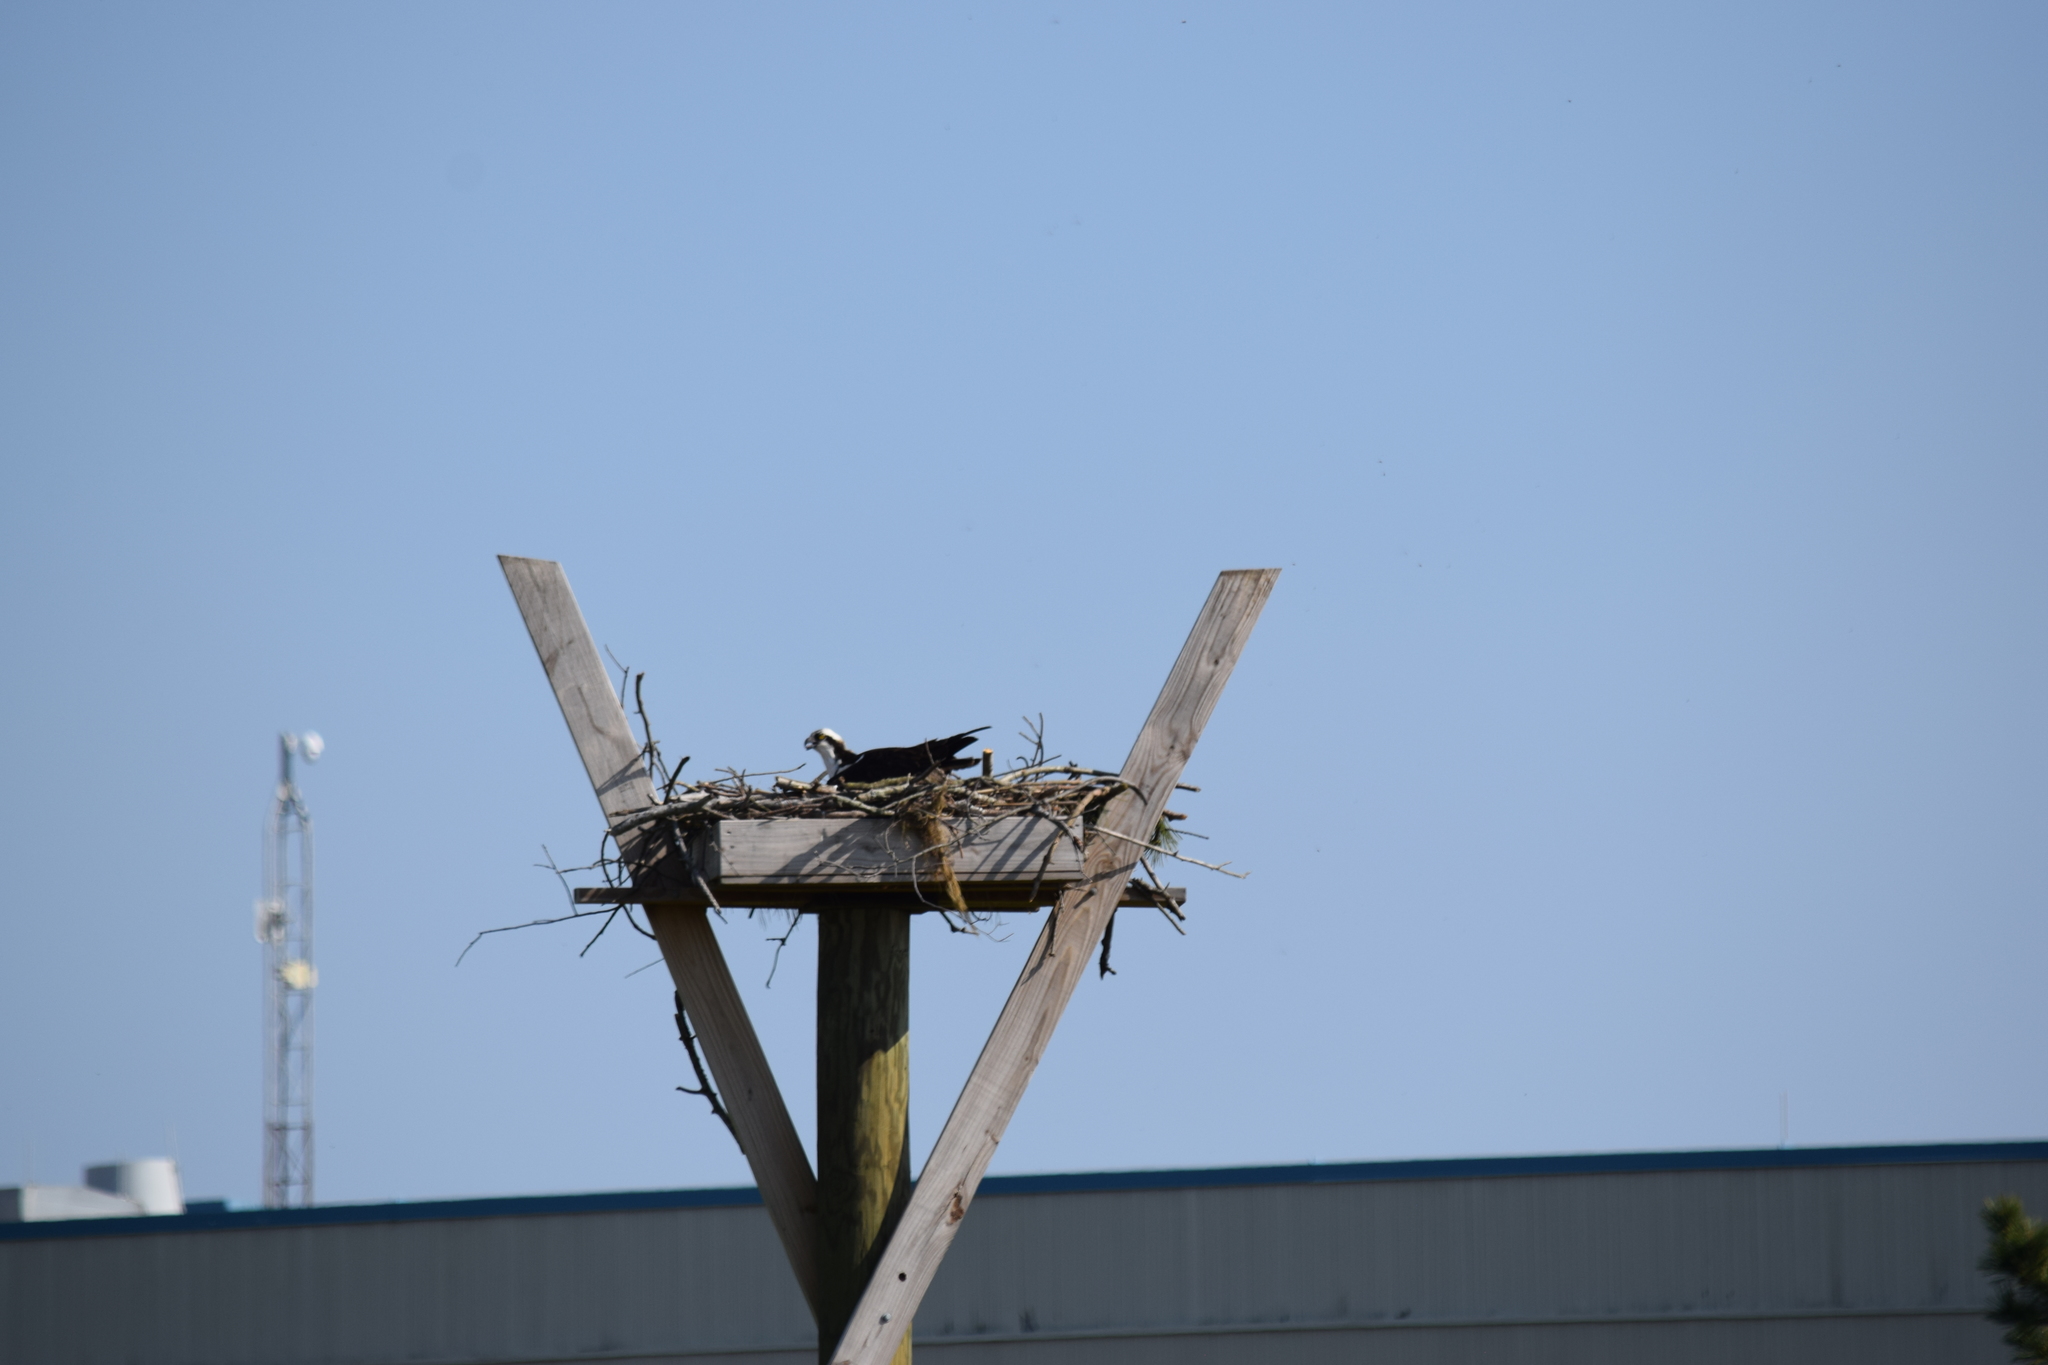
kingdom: Animalia
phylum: Chordata
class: Aves
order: Accipitriformes
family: Pandionidae
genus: Pandion
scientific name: Pandion haliaetus
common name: Osprey
